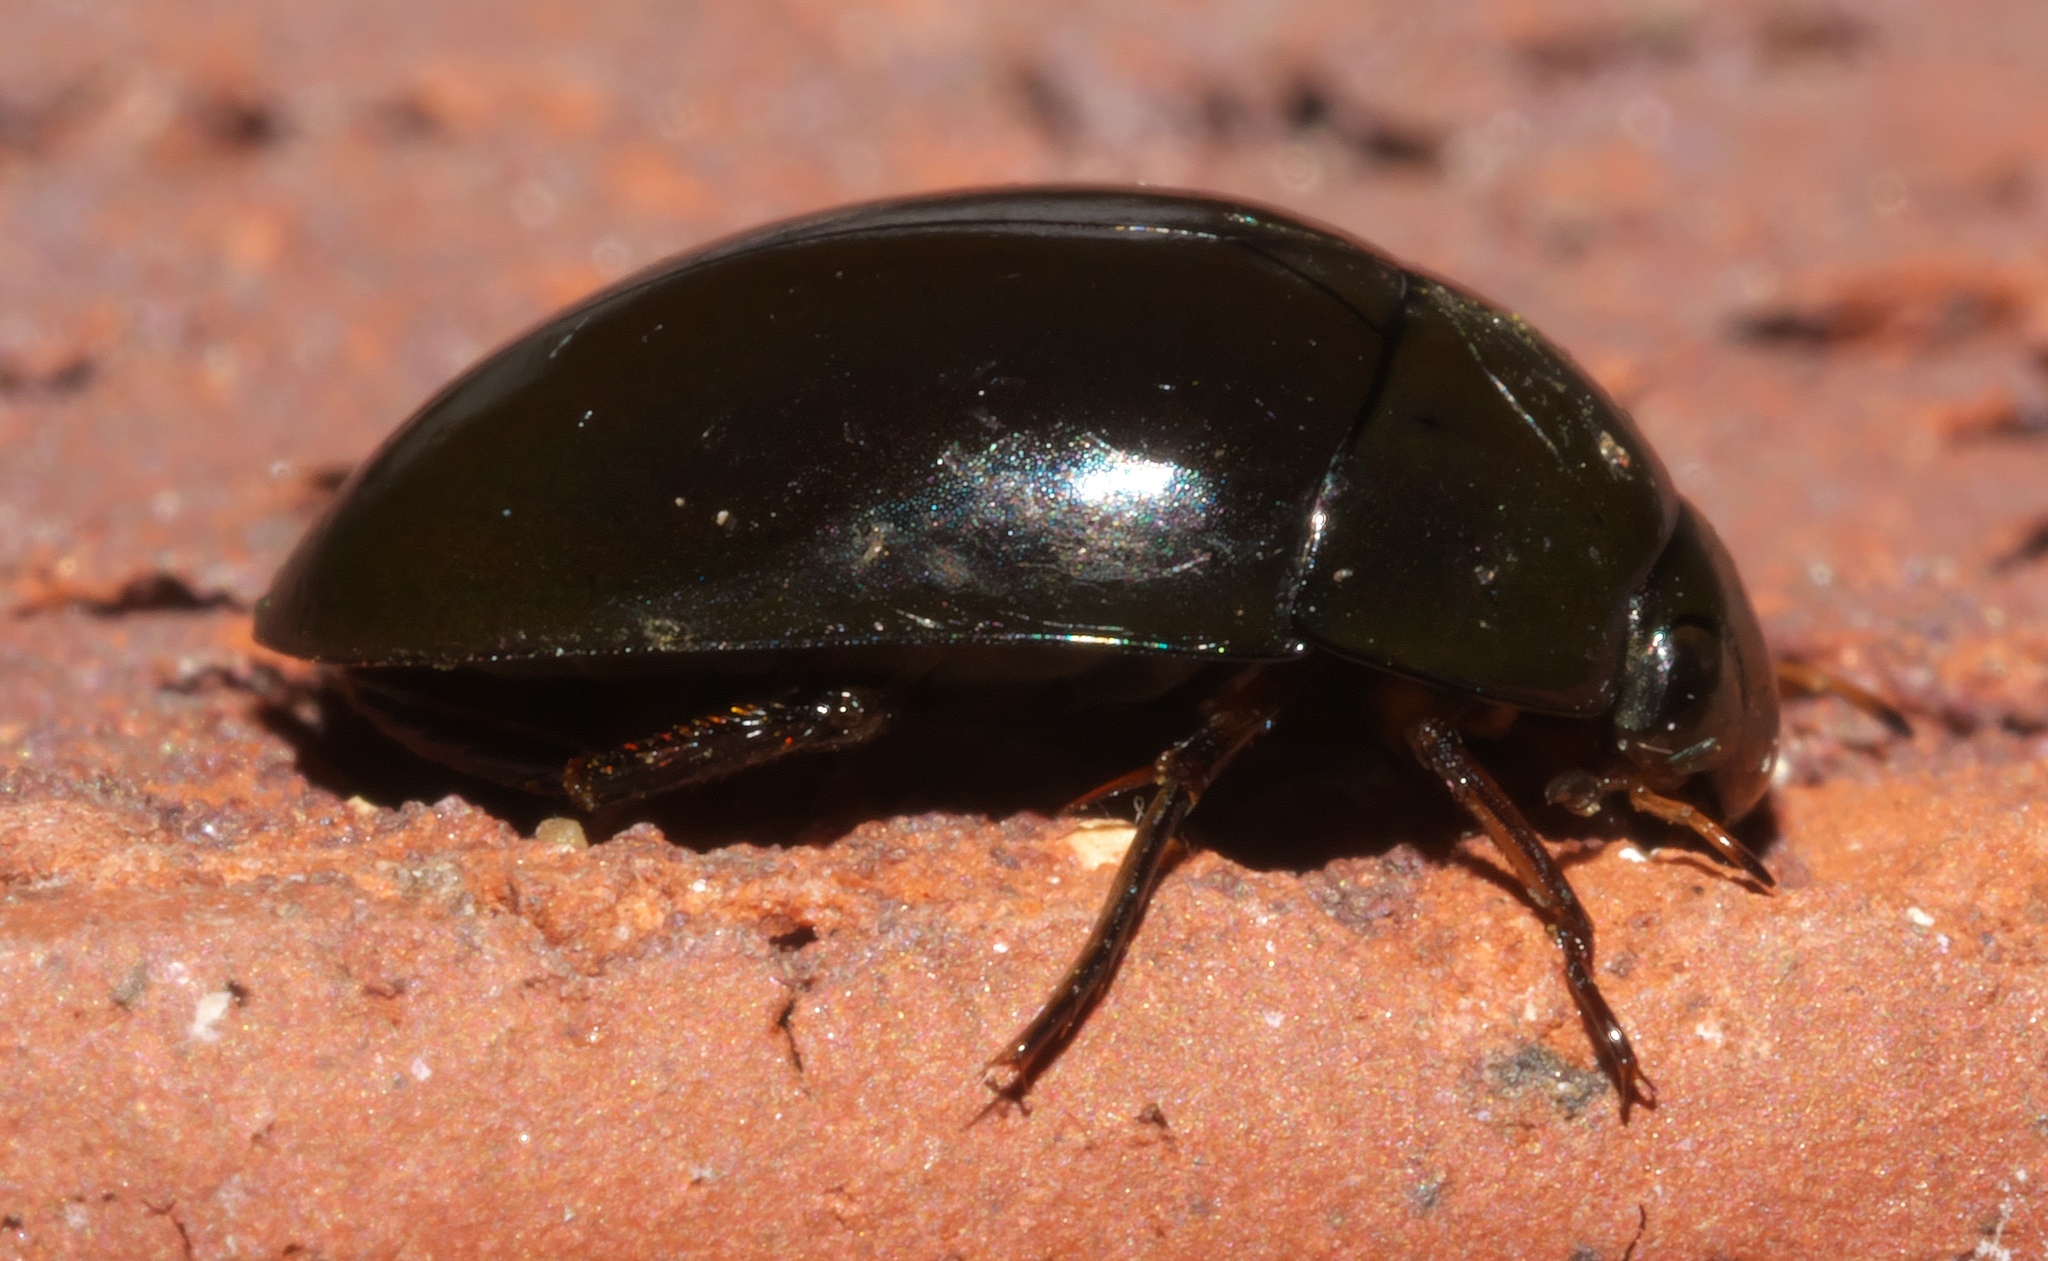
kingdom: Animalia
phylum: Arthropoda
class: Insecta
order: Coleoptera
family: Hydrophilidae
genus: Tropisternus
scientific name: Tropisternus blatchleyi
